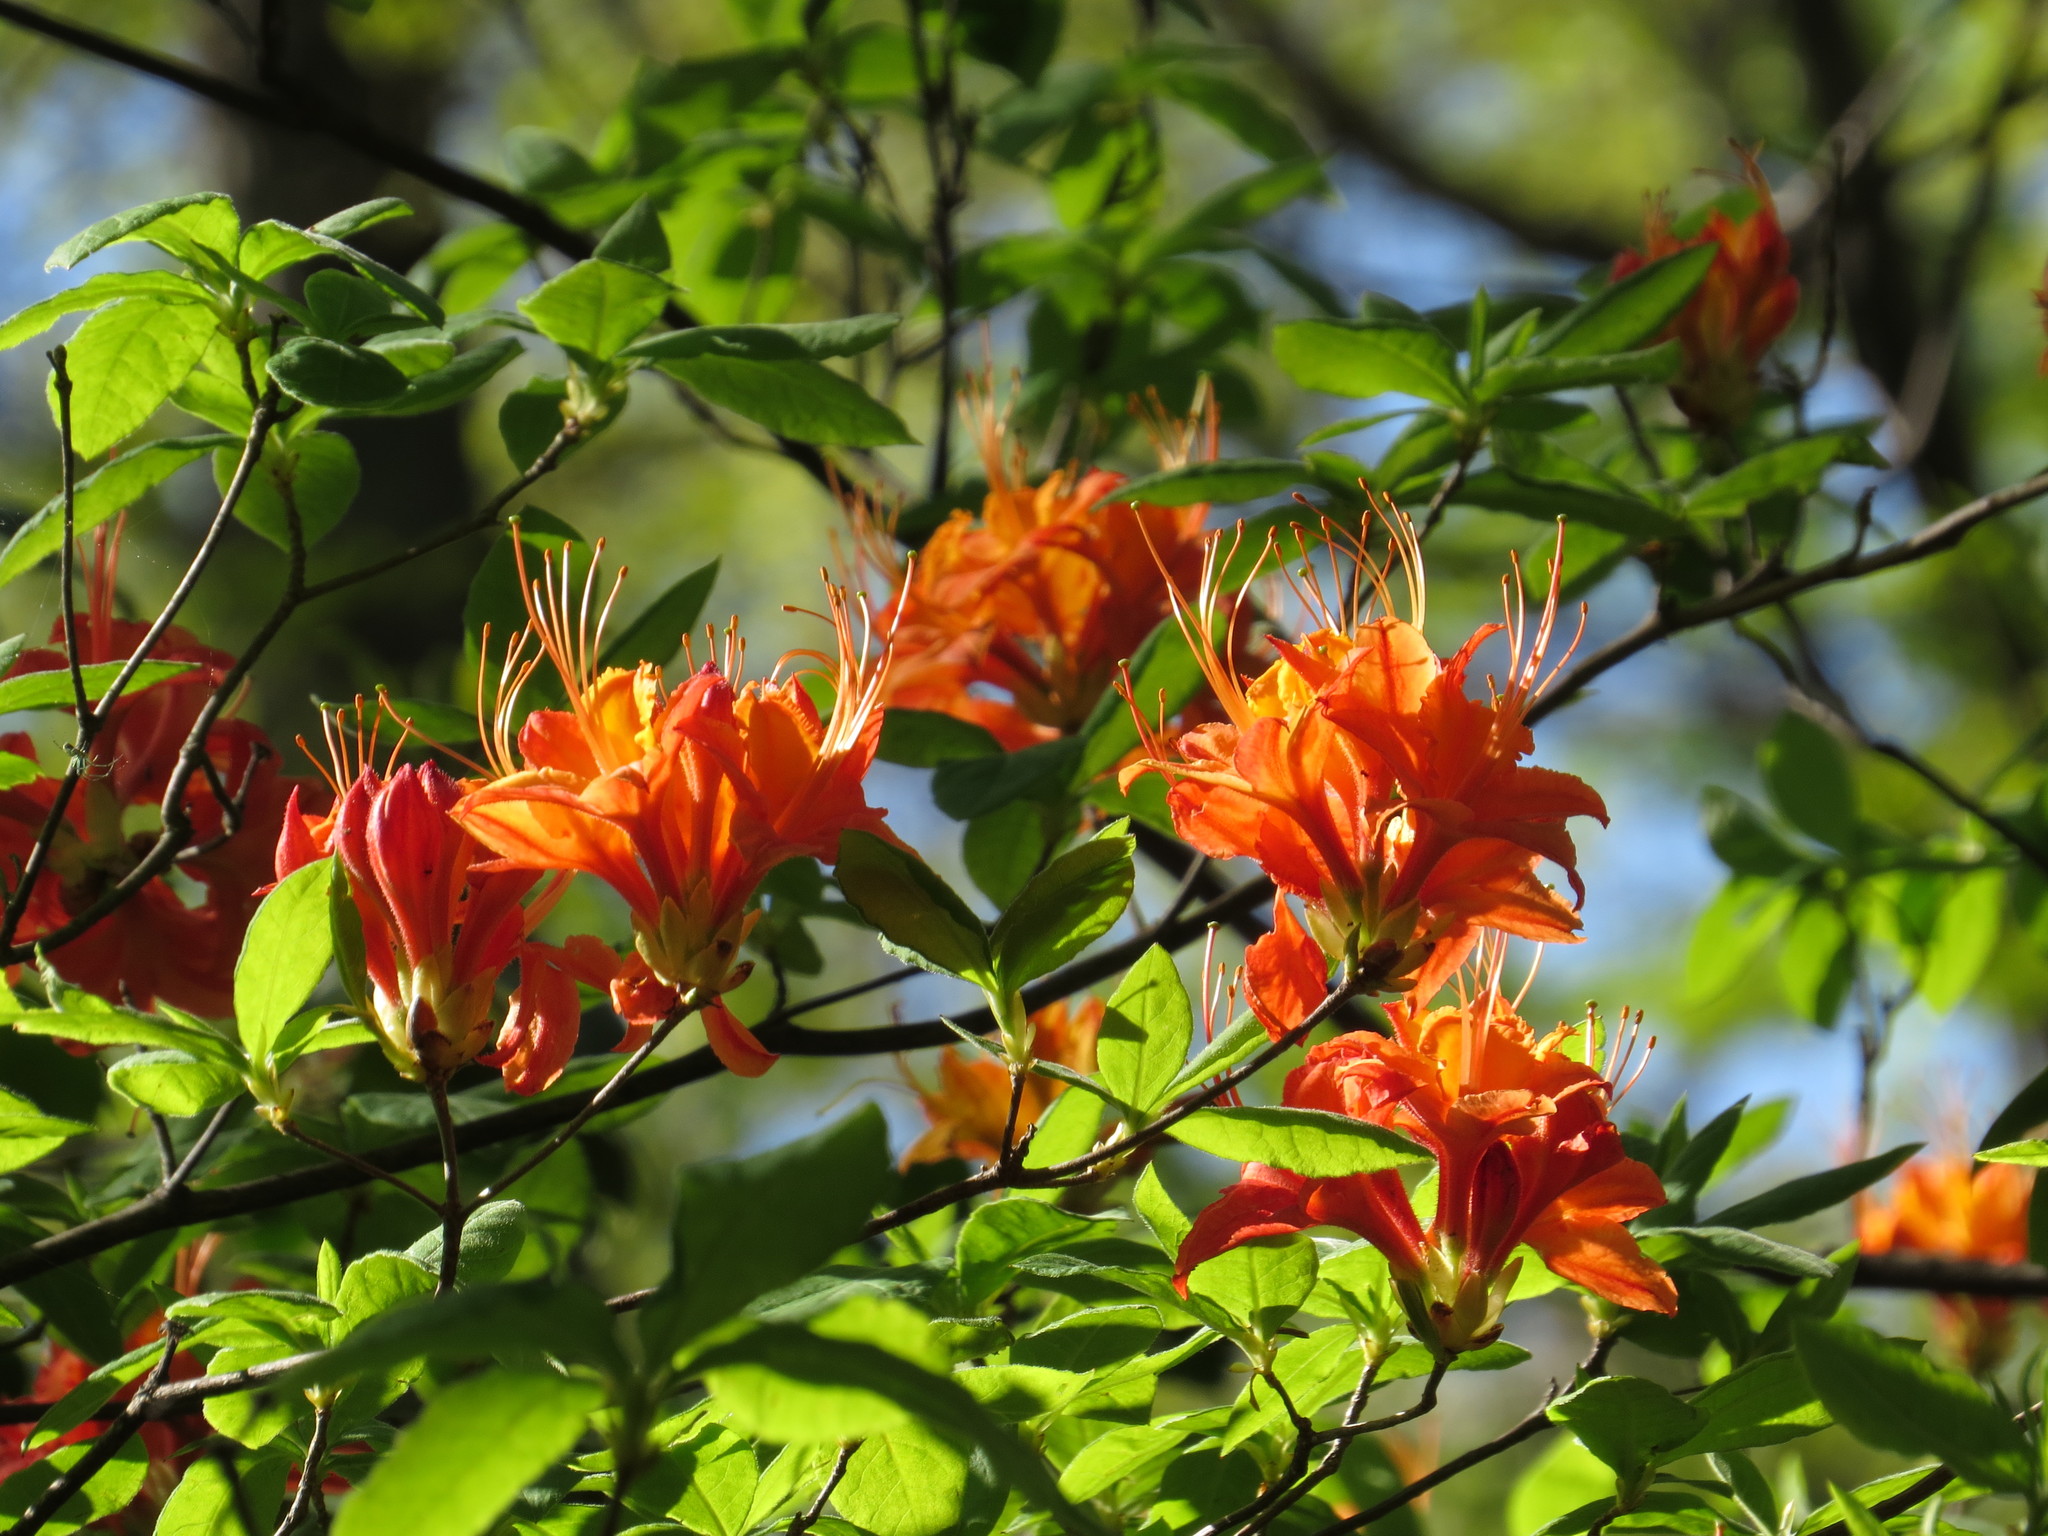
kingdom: Plantae
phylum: Tracheophyta
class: Magnoliopsida
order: Ericales
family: Ericaceae
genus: Rhododendron
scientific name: Rhododendron calendulaceum
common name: Flame azalea
